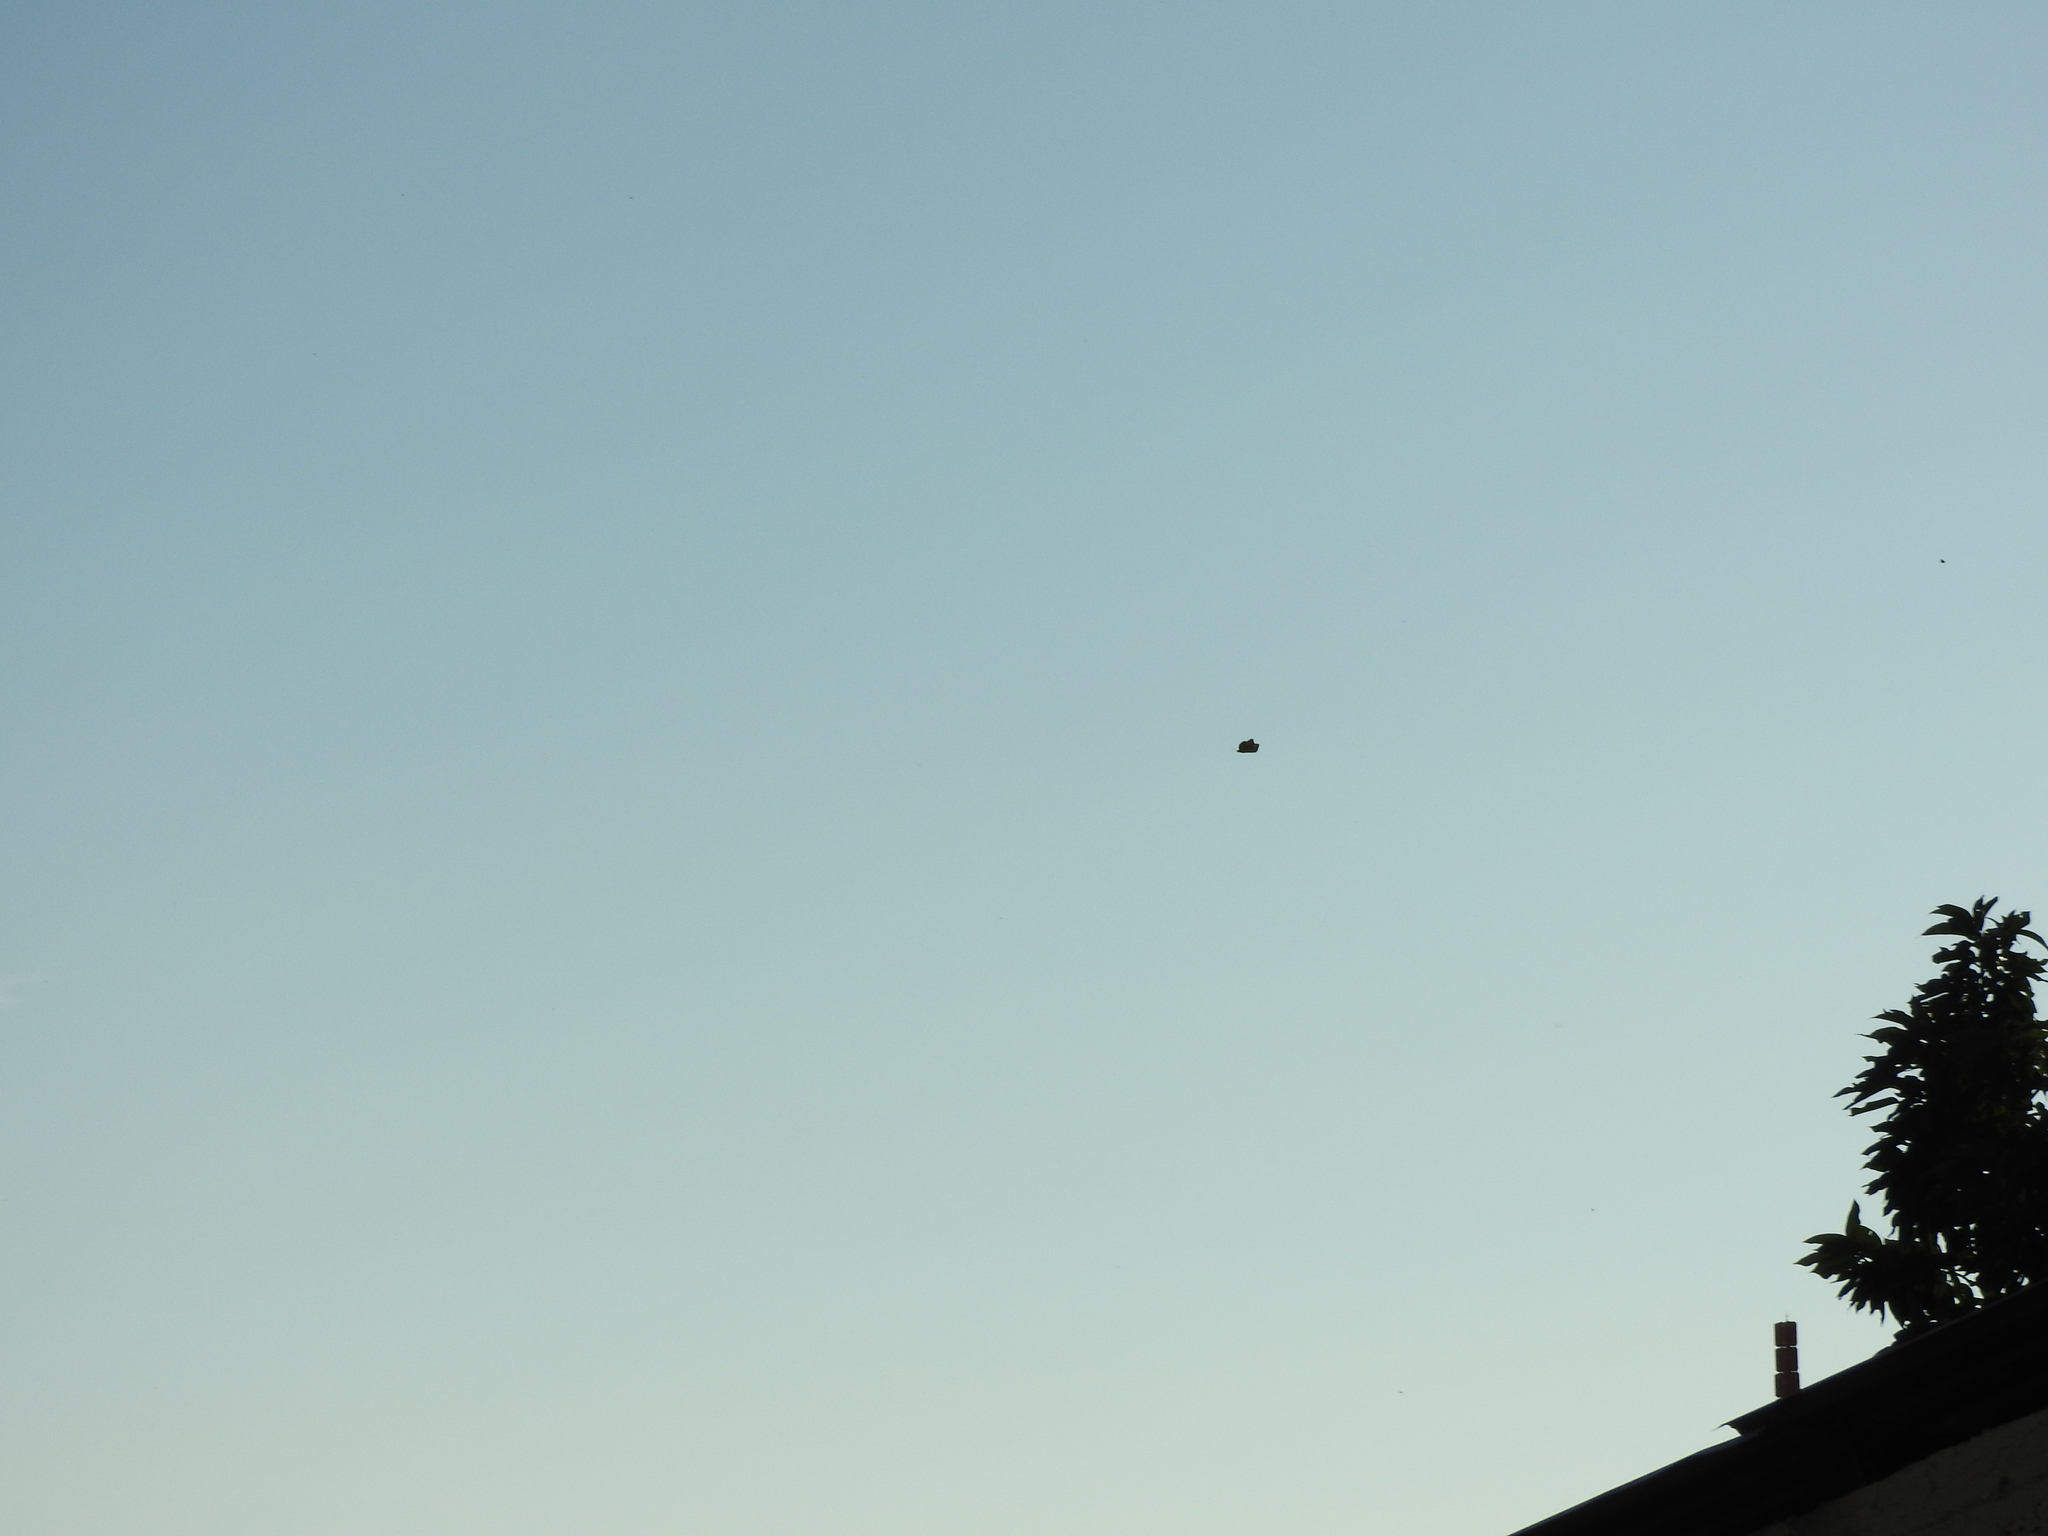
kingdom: Animalia
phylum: Arthropoda
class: Insecta
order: Lepidoptera
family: Nymphalidae
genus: Danaus
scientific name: Danaus plexippus
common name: Monarch
